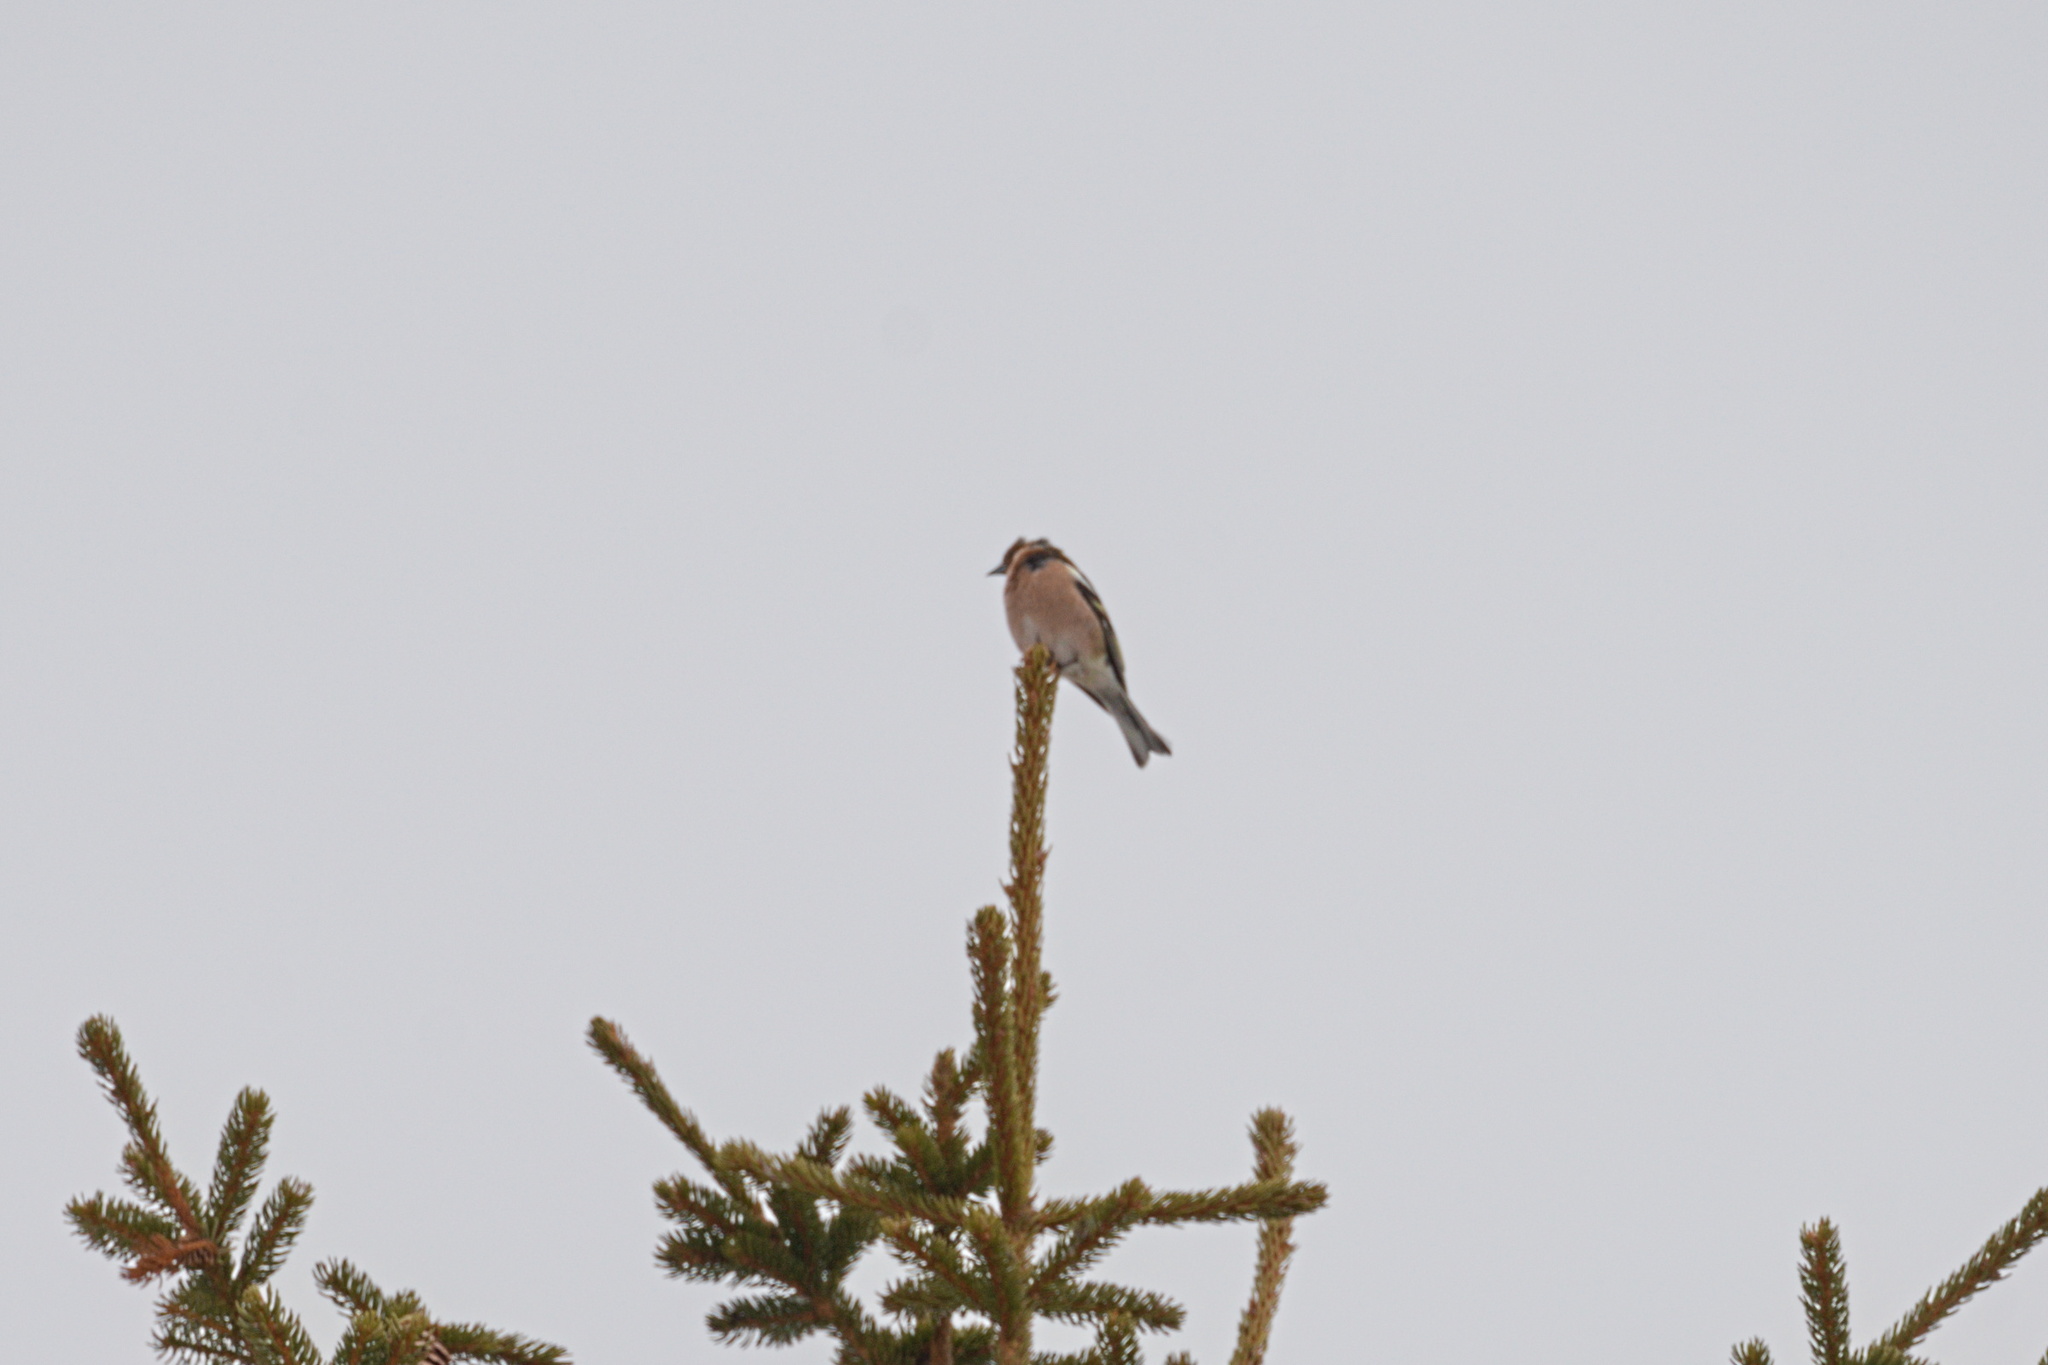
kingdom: Animalia
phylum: Chordata
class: Aves
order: Passeriformes
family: Fringillidae
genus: Fringilla
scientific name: Fringilla coelebs
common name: Common chaffinch
